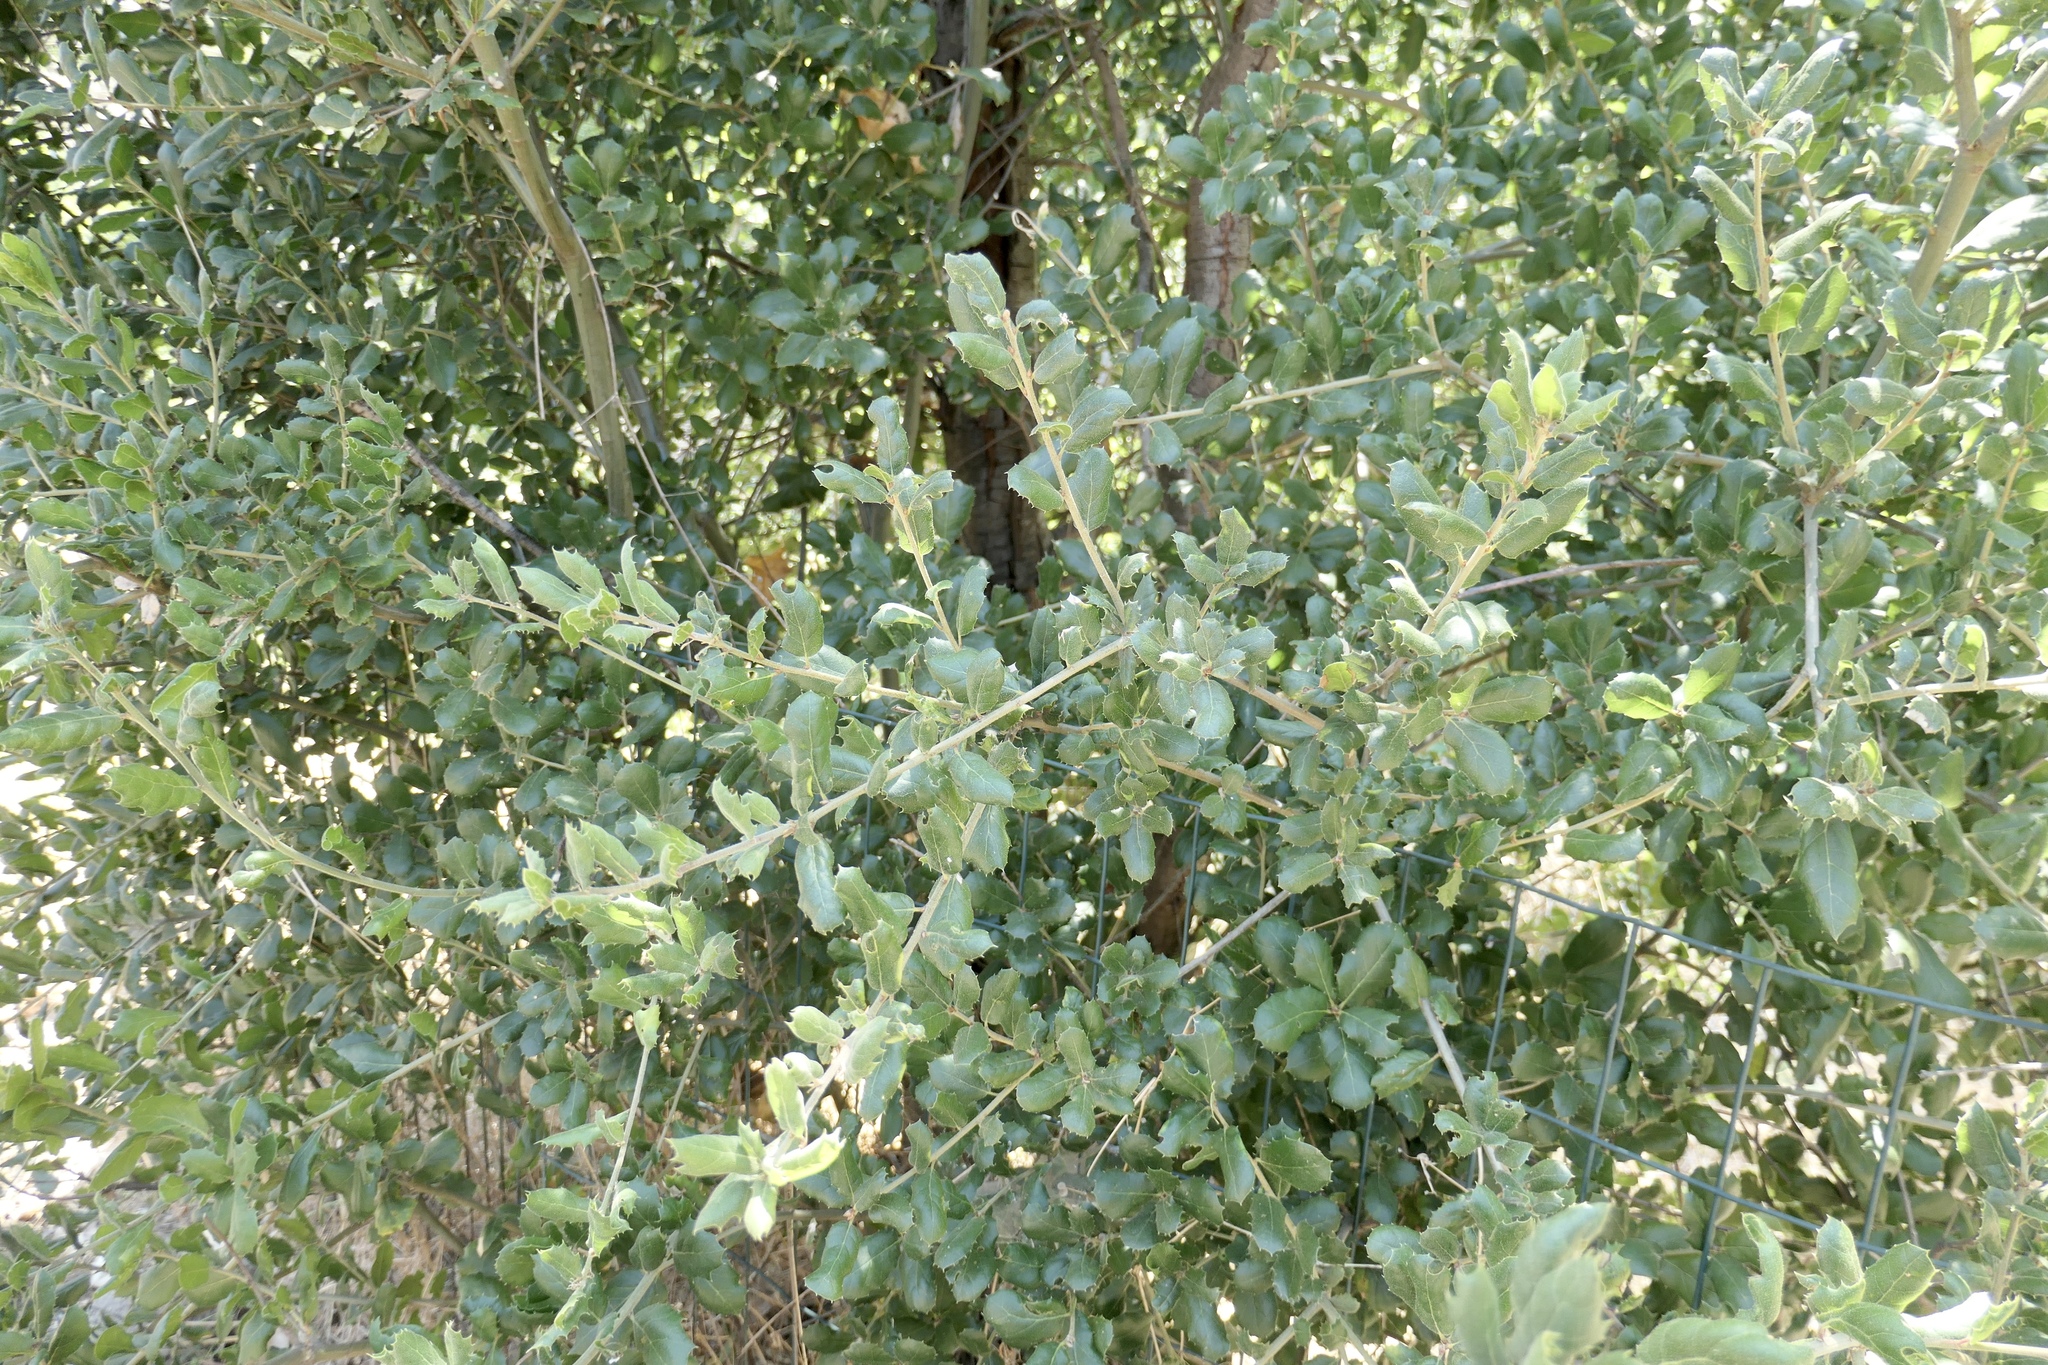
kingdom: Plantae
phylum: Tracheophyta
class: Magnoliopsida
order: Fagales
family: Fagaceae
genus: Quercus
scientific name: Quercus agrifolia
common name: California live oak
